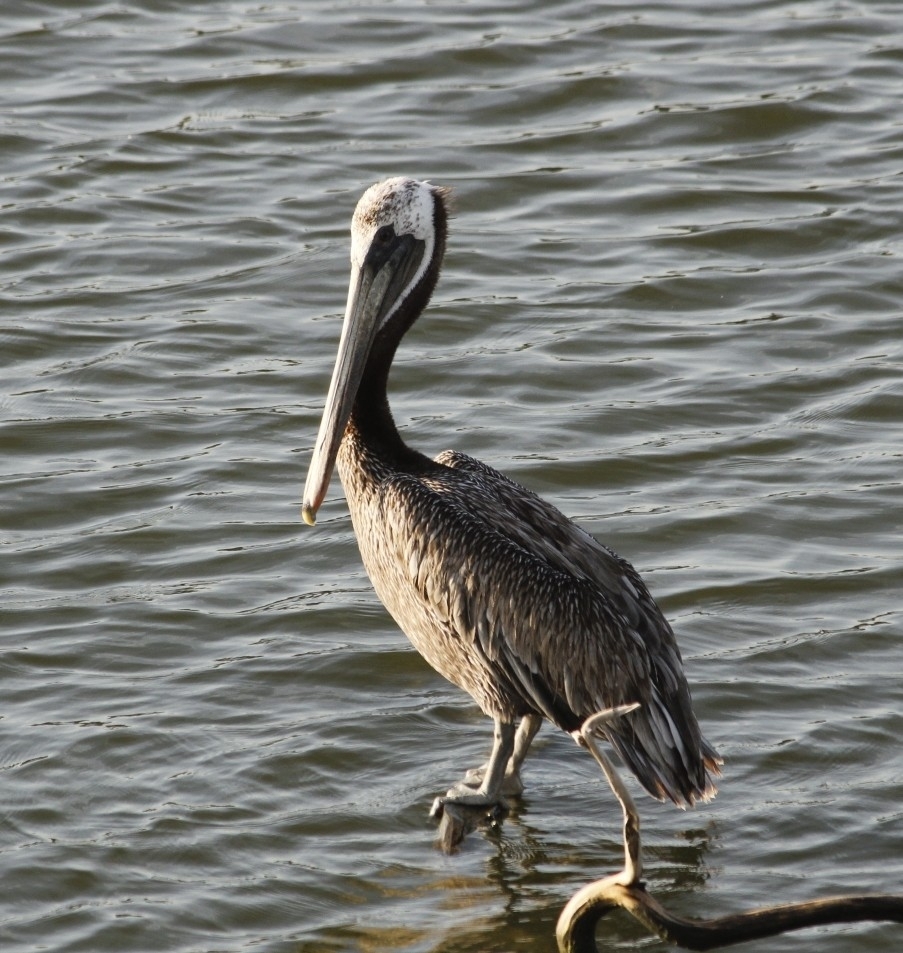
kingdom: Animalia
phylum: Chordata
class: Aves
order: Pelecaniformes
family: Pelecanidae
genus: Pelecanus
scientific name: Pelecanus occidentalis
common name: Brown pelican
